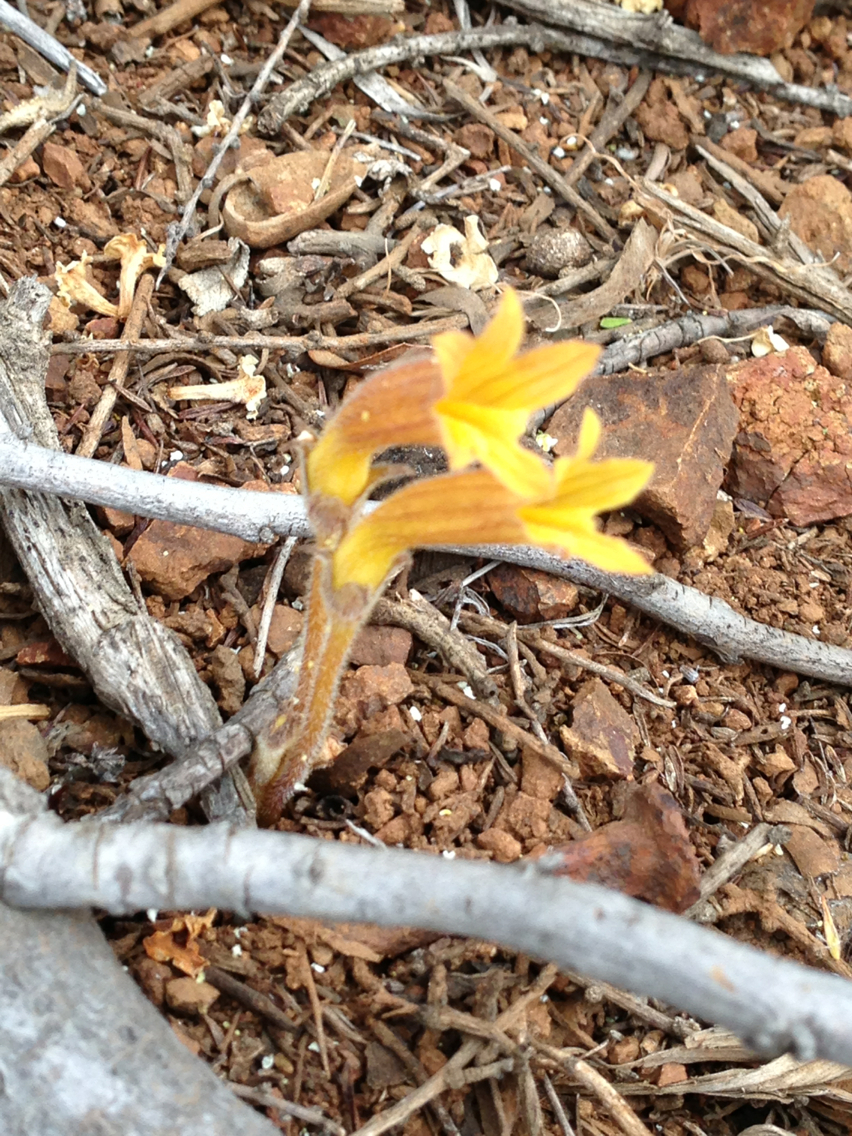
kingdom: Plantae
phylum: Tracheophyta
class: Magnoliopsida
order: Lamiales
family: Orobanchaceae
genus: Aphyllon
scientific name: Aphyllon franciscanum
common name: San francisco broomrape
